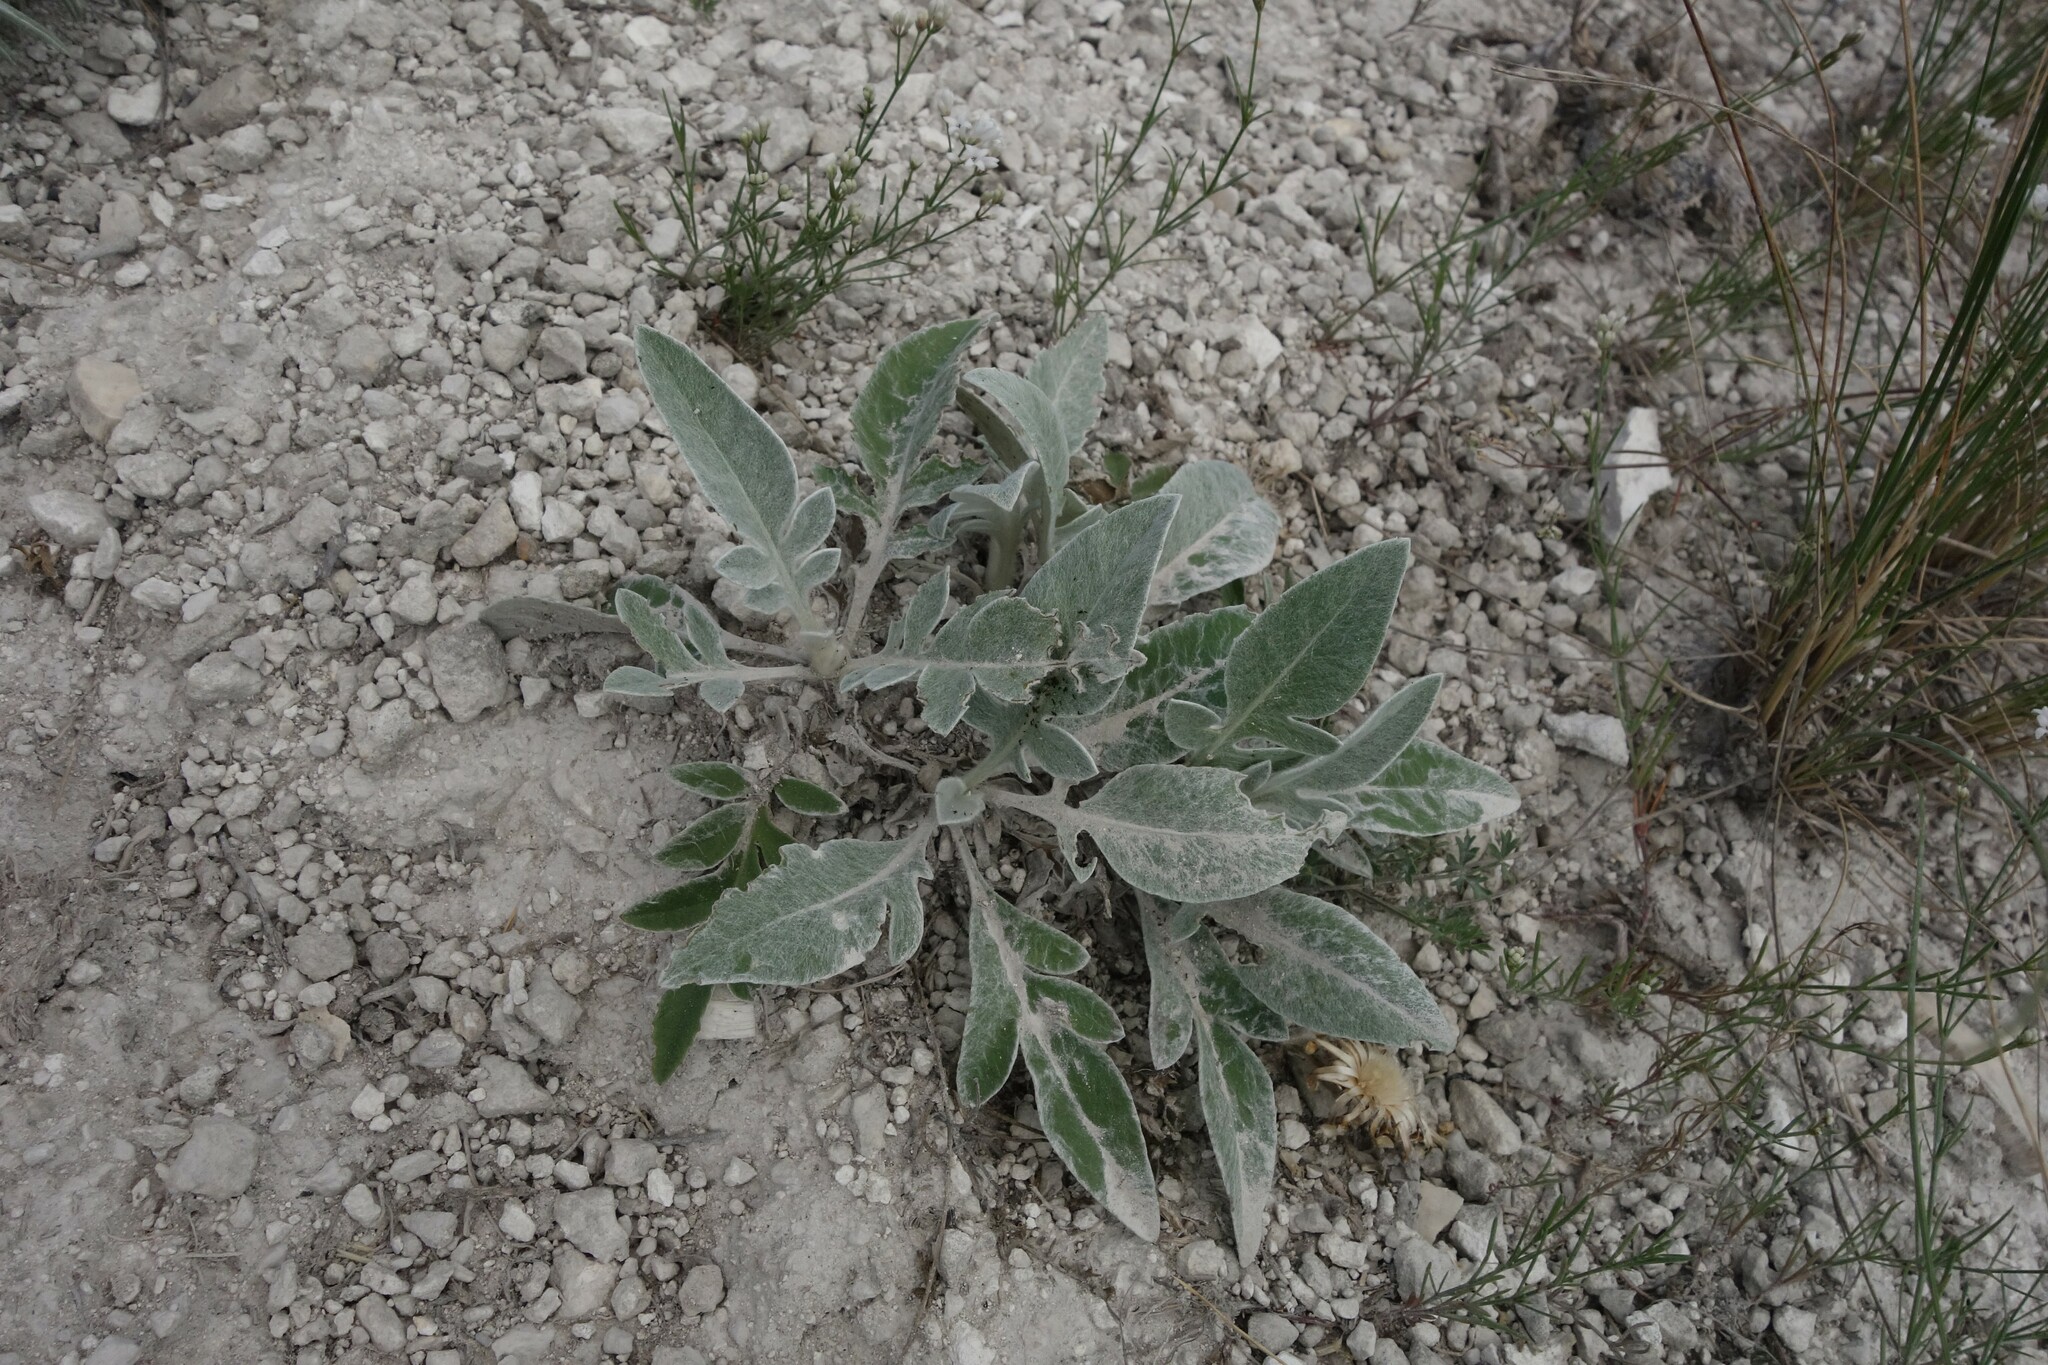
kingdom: Plantae
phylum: Tracheophyta
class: Magnoliopsida
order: Asterales
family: Asteraceae
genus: Psephellus
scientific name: Psephellus sumensis
